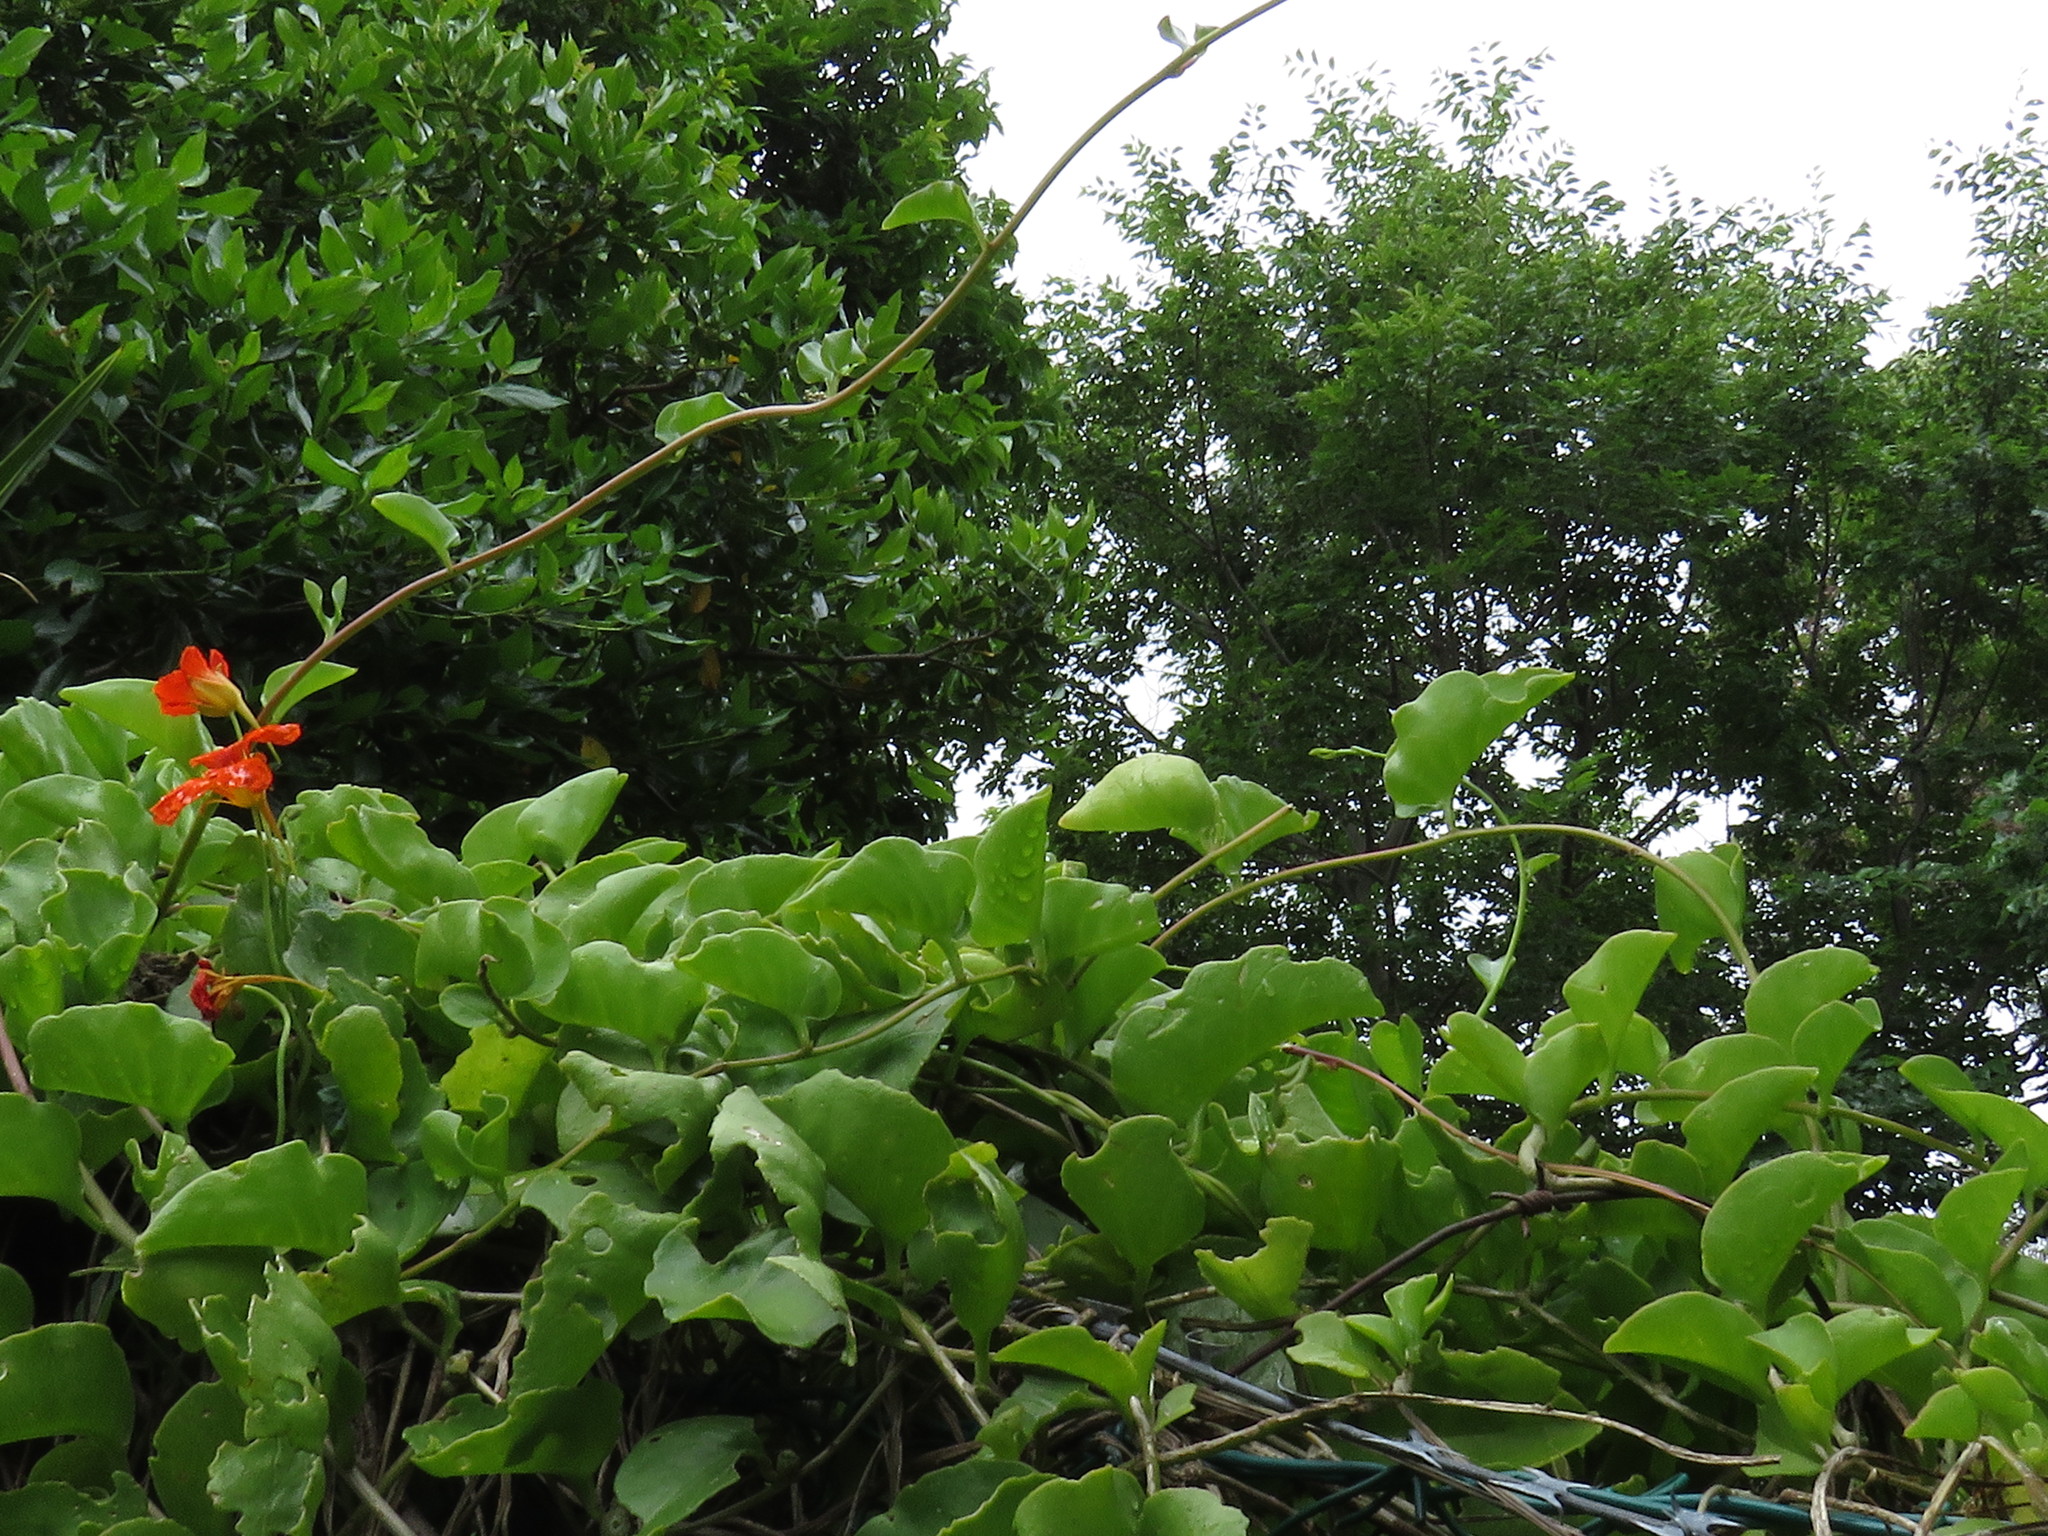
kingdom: Plantae
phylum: Tracheophyta
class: Magnoliopsida
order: Caryophyllales
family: Basellaceae
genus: Anredera
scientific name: Anredera cordifolia
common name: Heartleaf madeiravine
